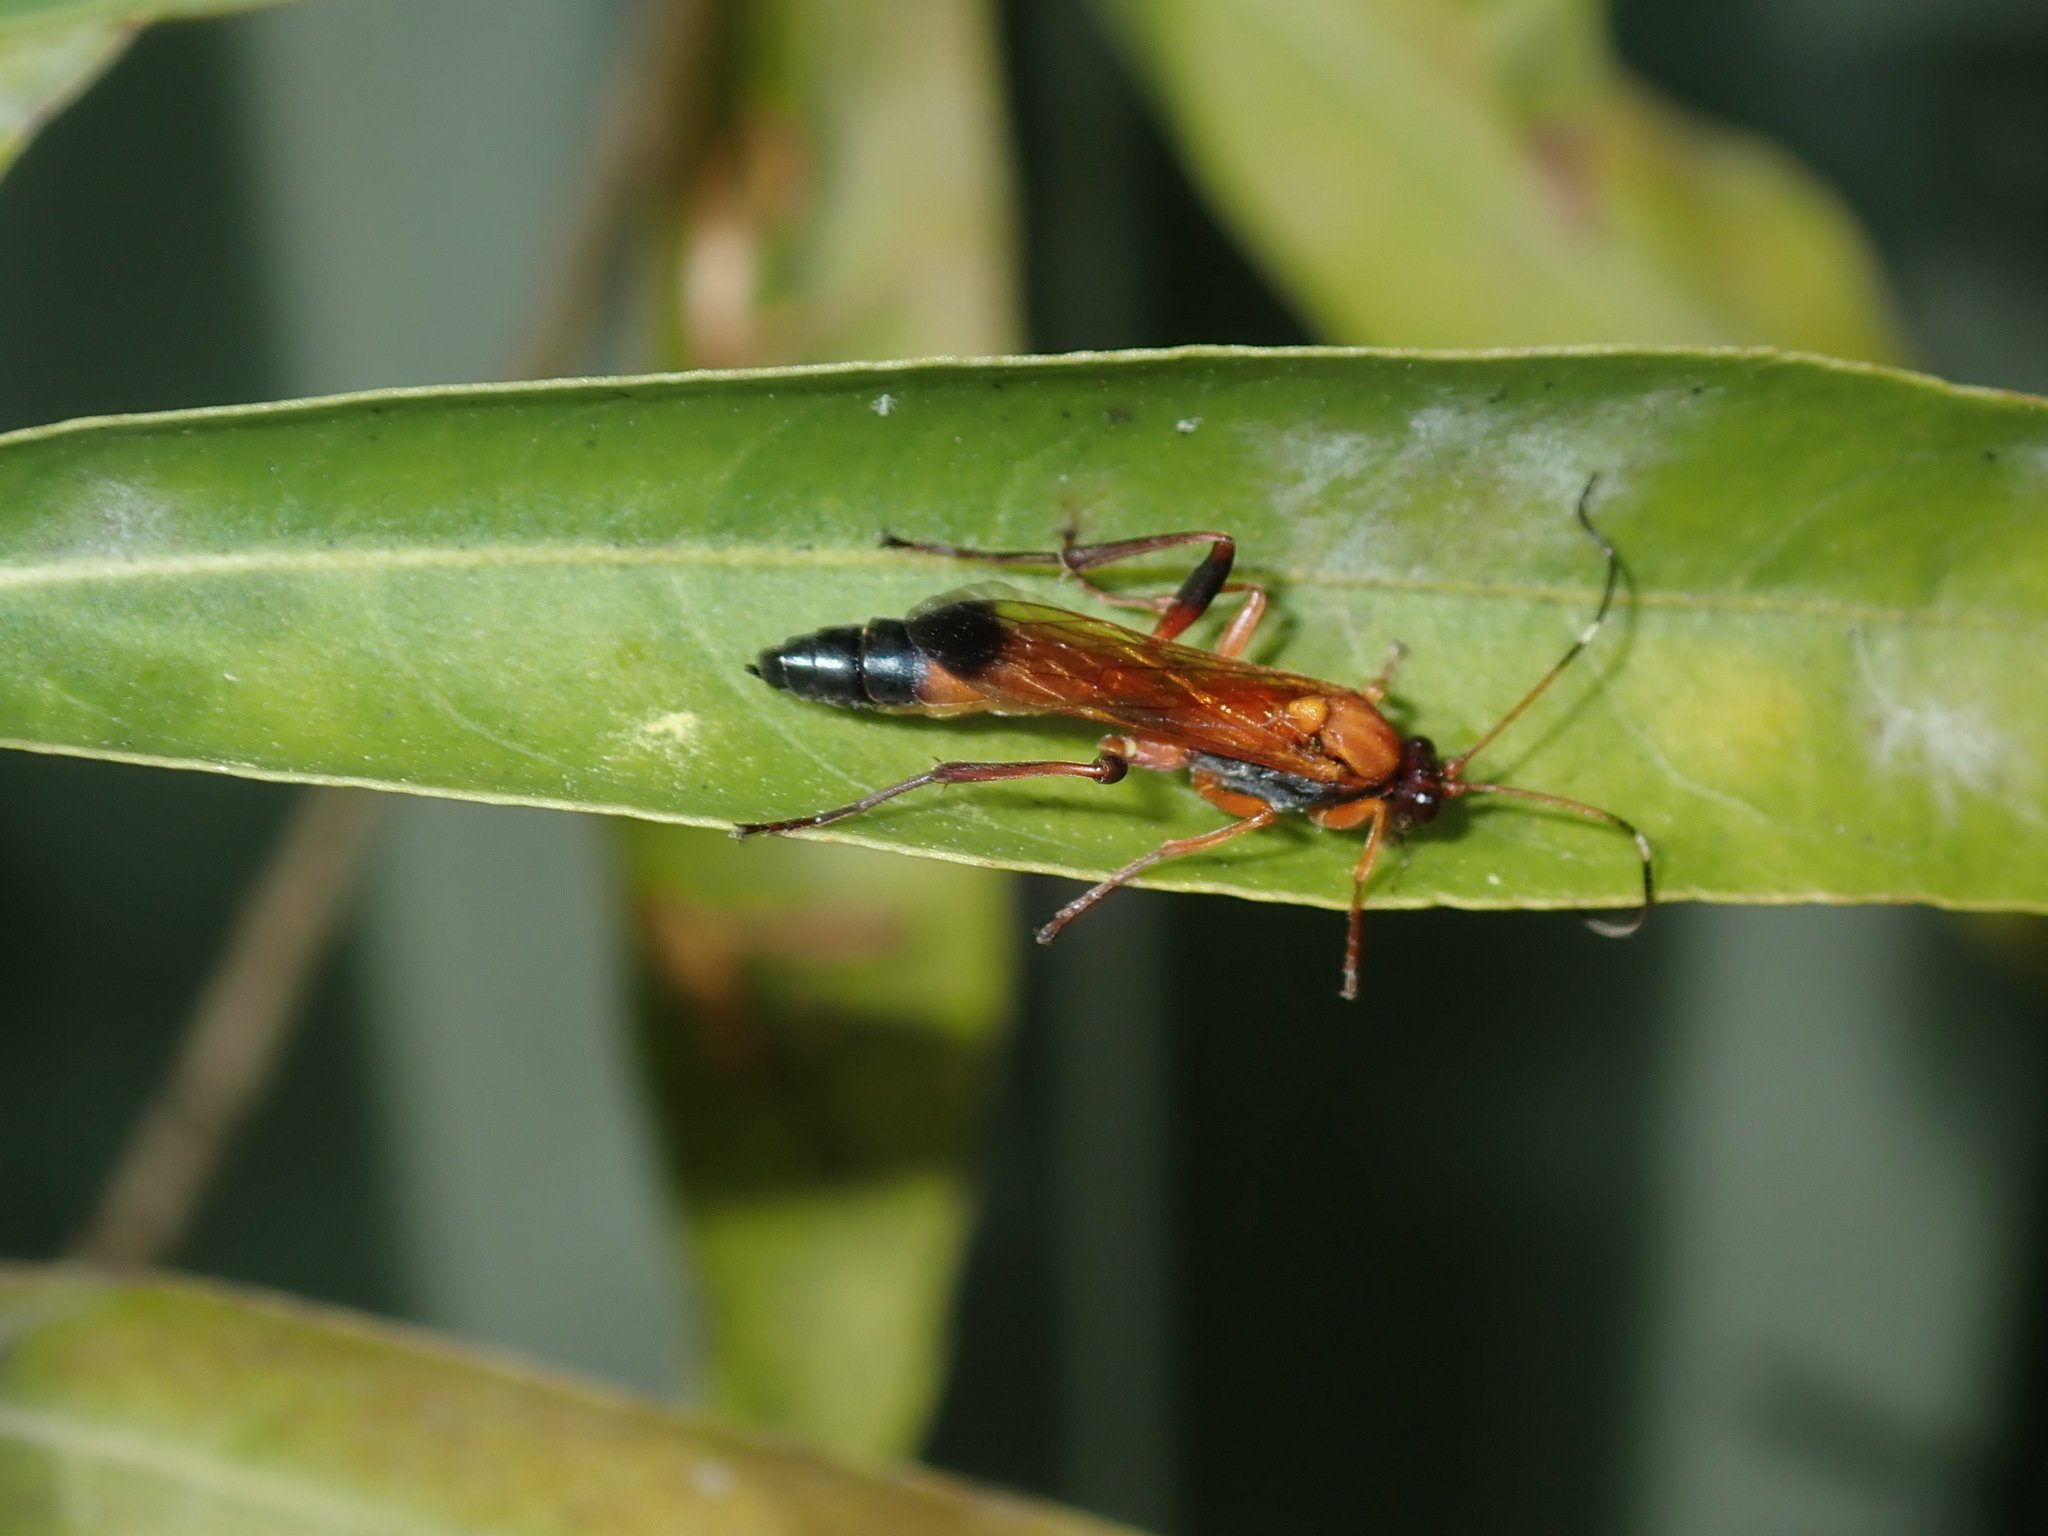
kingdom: Animalia
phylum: Arthropoda
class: Insecta
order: Hymenoptera
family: Ichneumonidae
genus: Ctenochares
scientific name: Ctenochares bicolorus
